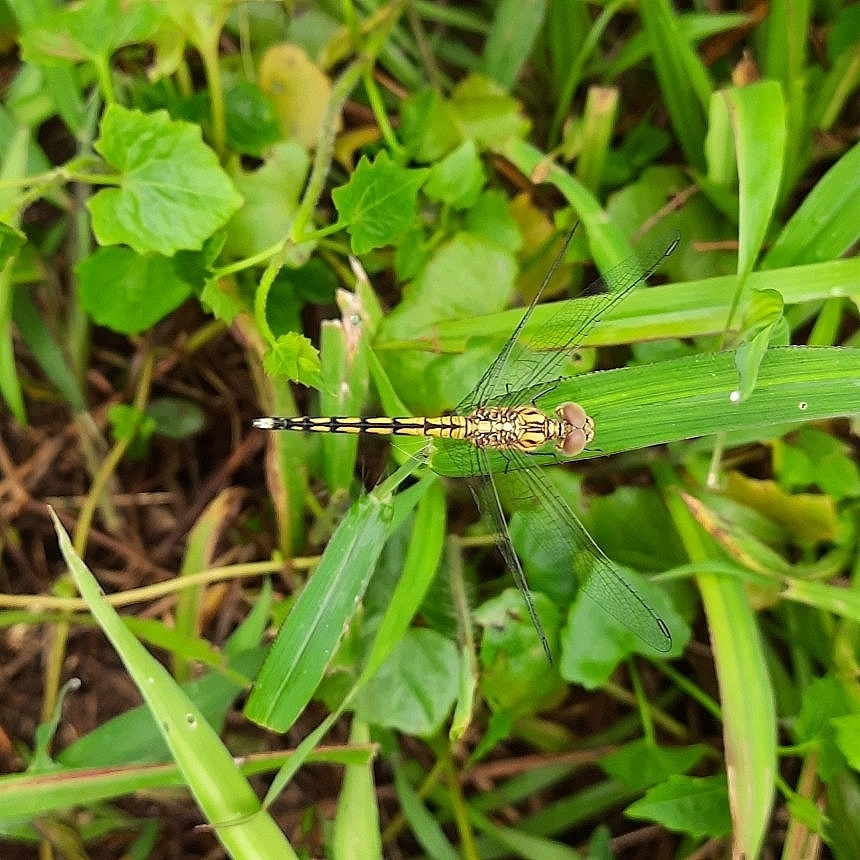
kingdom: Animalia
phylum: Arthropoda
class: Insecta
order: Odonata
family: Libellulidae
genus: Indothemis
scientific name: Indothemis carnatica
